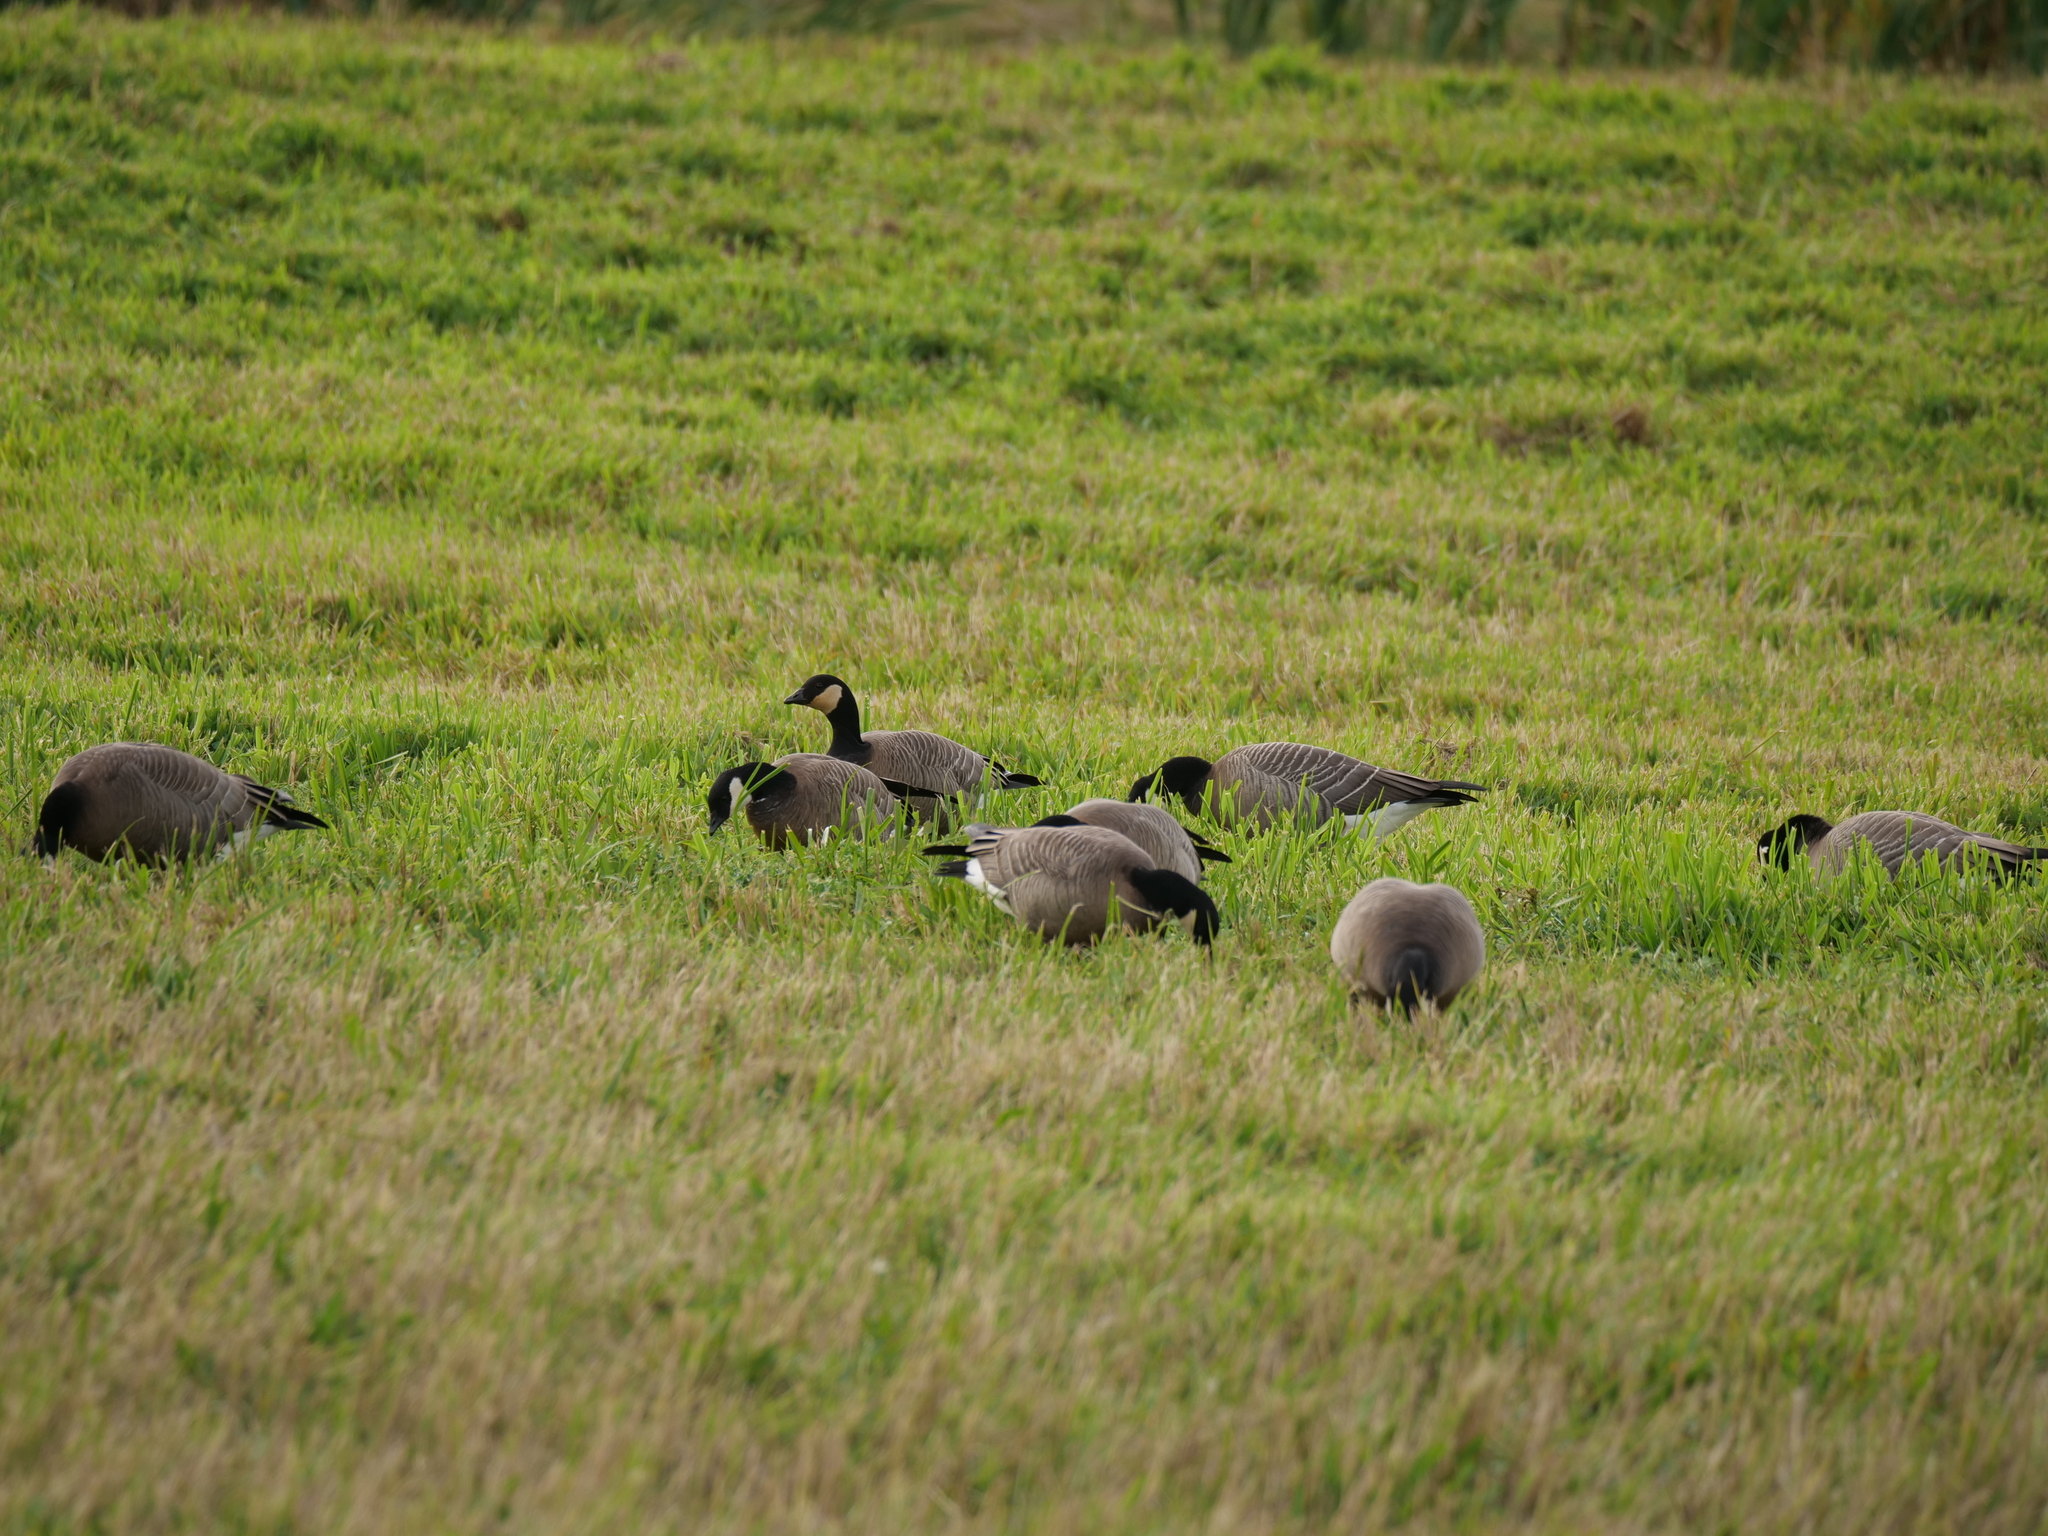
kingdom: Animalia
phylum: Chordata
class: Aves
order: Anseriformes
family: Anatidae
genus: Branta
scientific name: Branta hutchinsii
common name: Cackling goose
